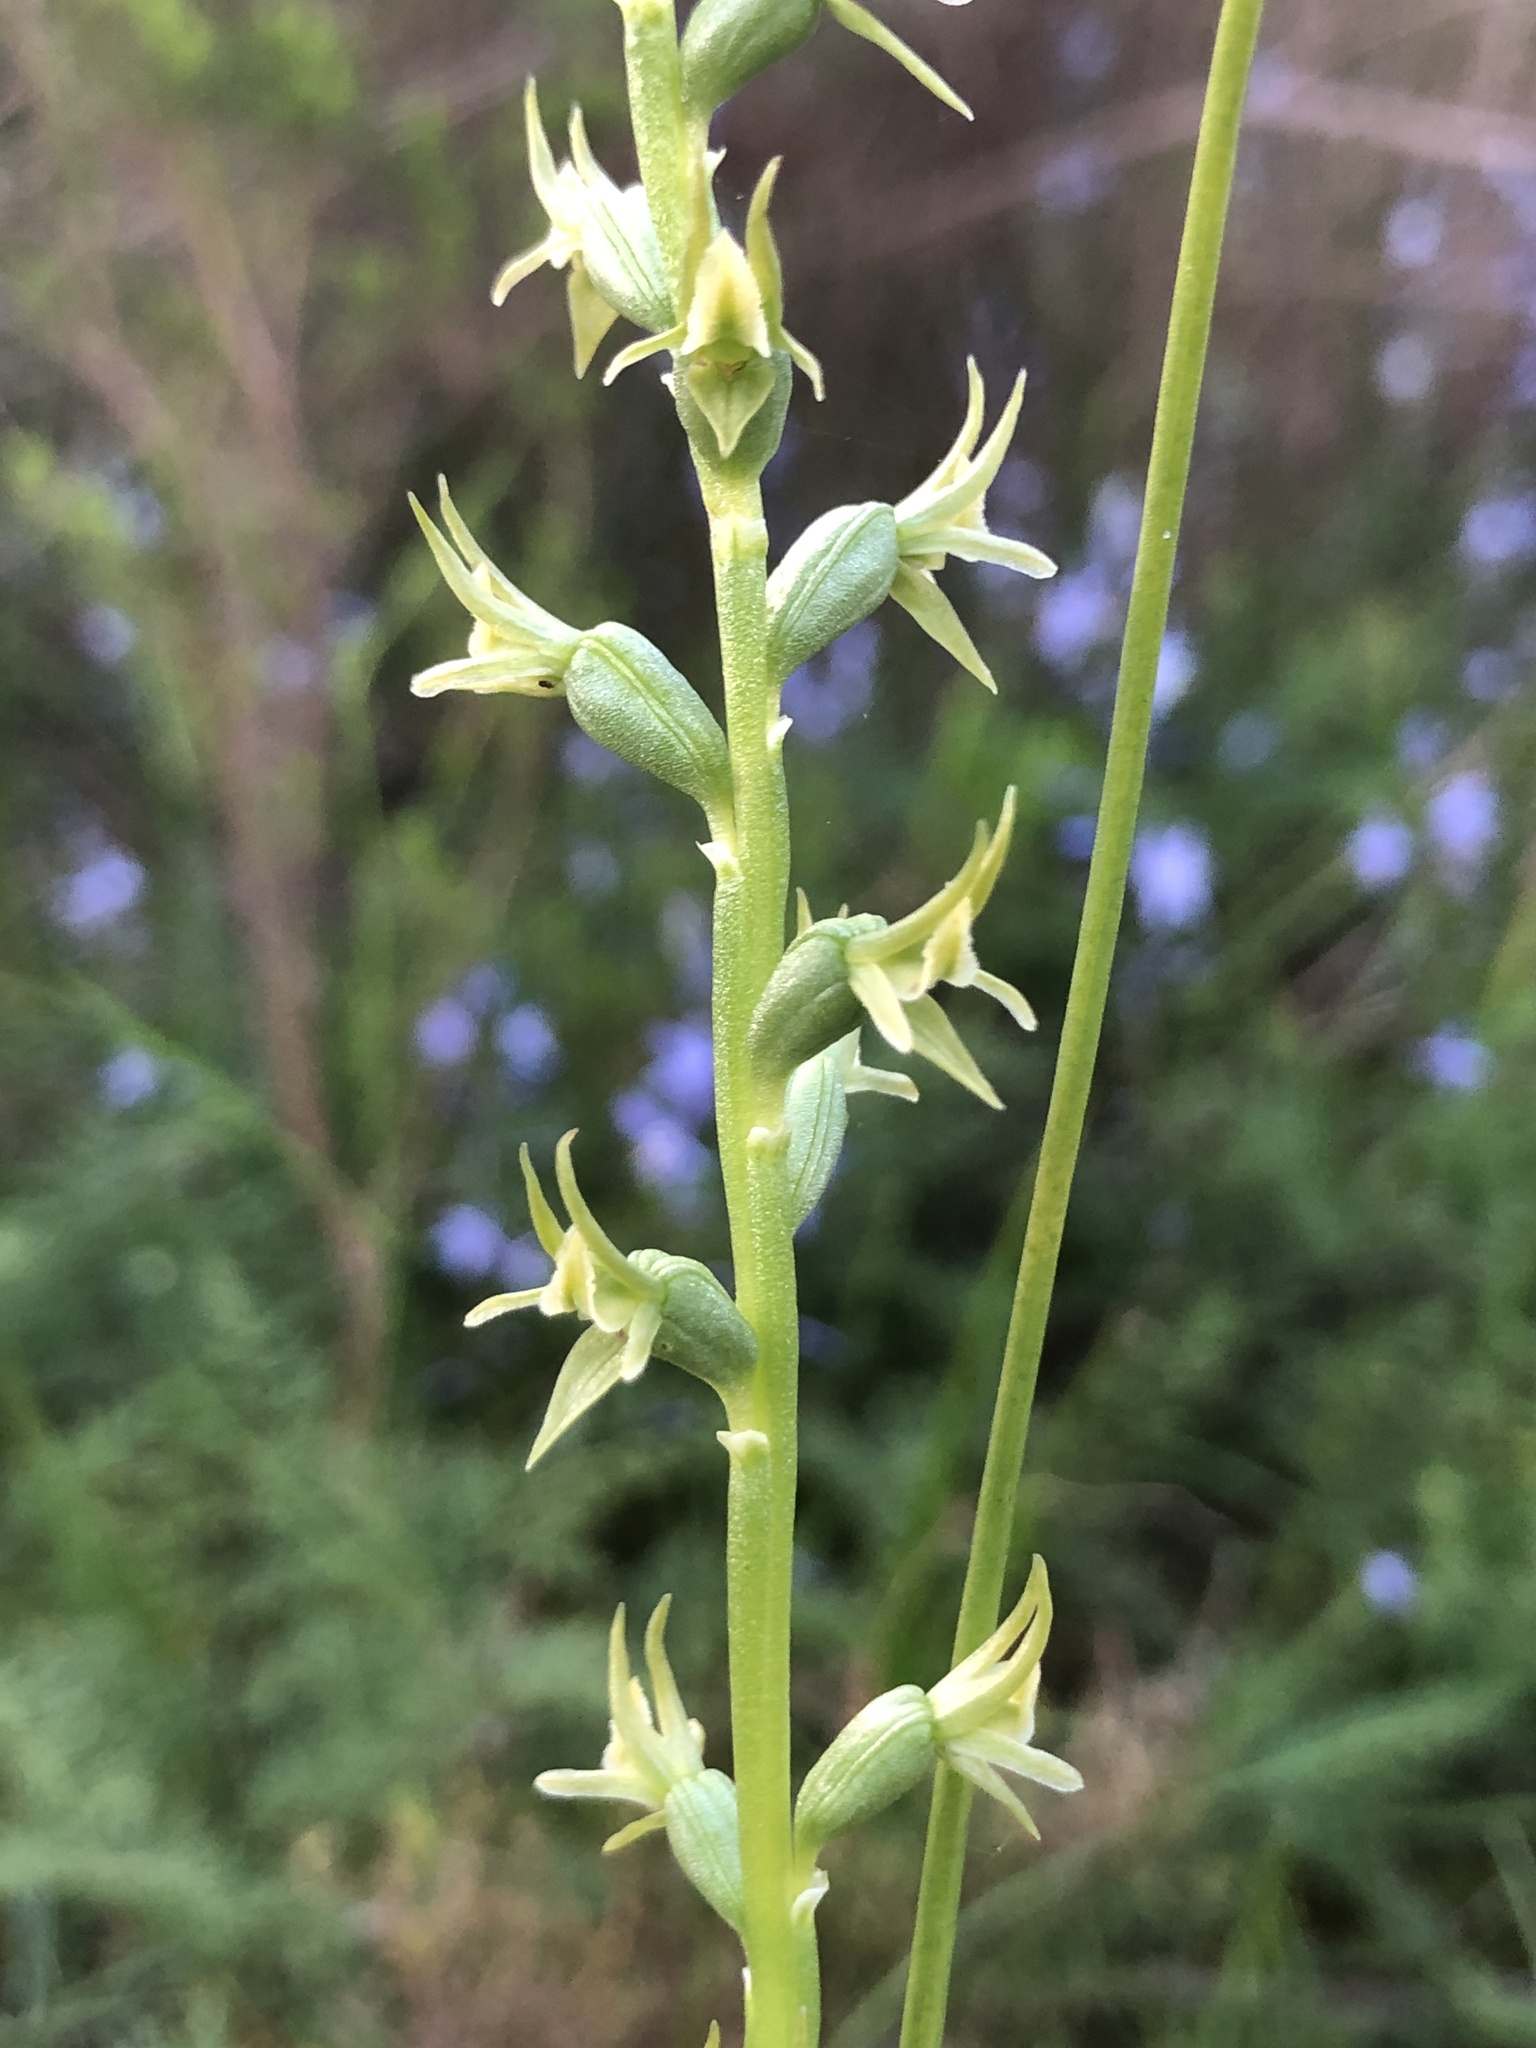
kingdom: Plantae
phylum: Tracheophyta
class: Liliopsida
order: Asparagales
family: Orchidaceae
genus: Prasophyllum
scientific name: Prasophyllum pallidum
